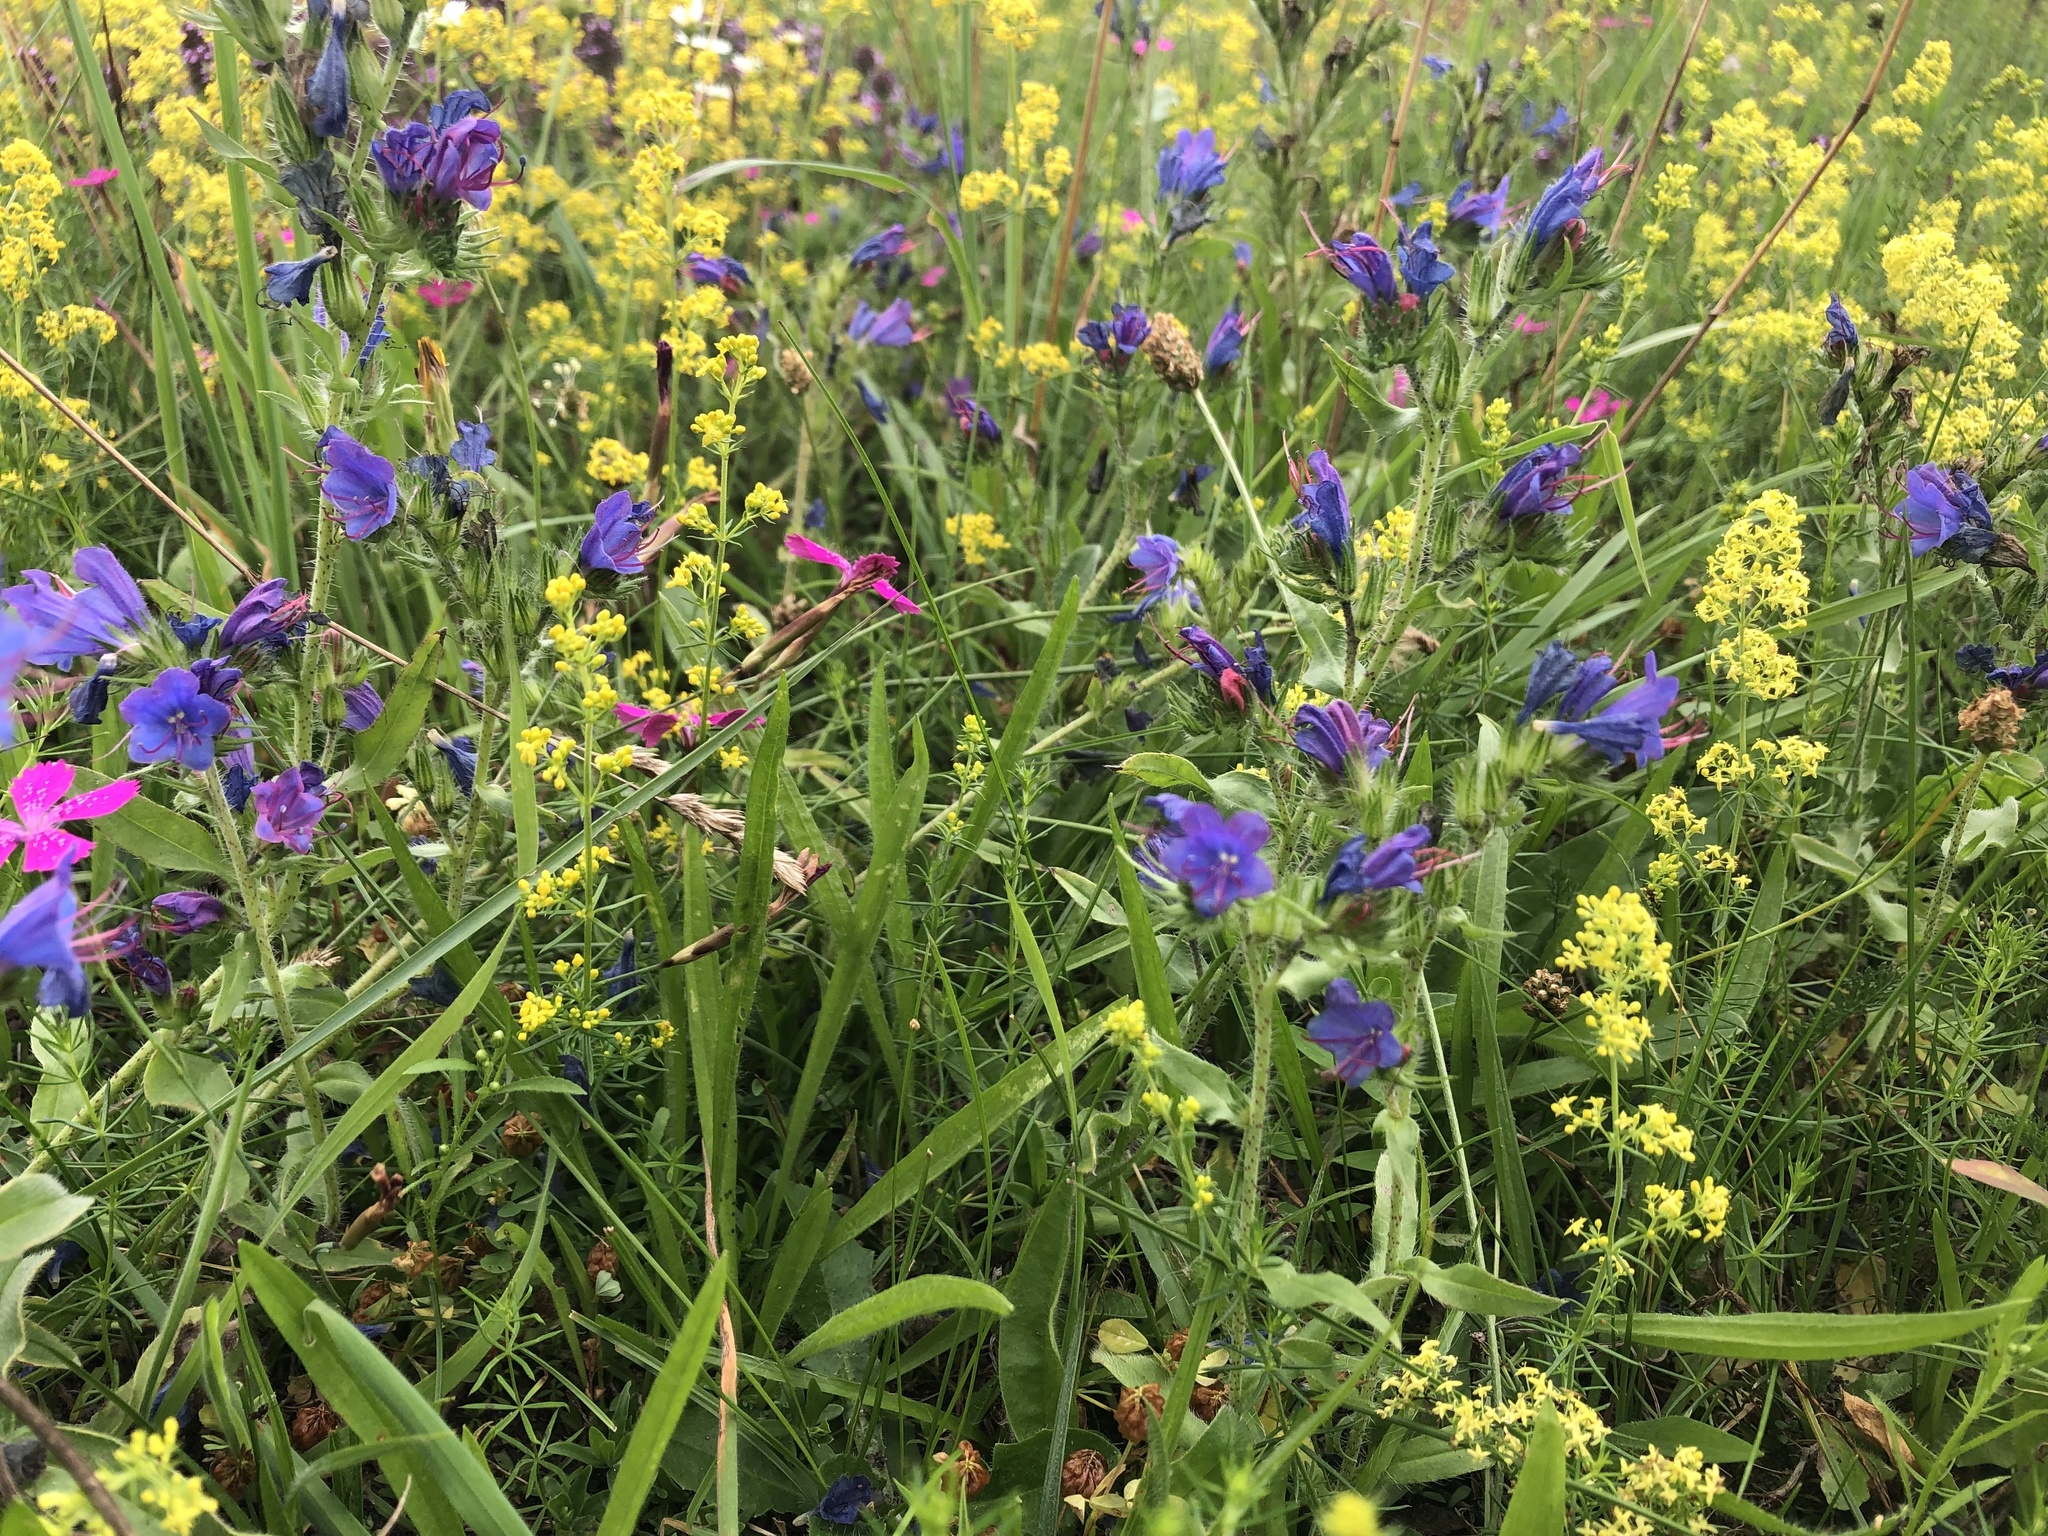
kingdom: Plantae
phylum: Tracheophyta
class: Magnoliopsida
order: Boraginales
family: Boraginaceae
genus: Echium
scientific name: Echium vulgare
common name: Common viper's bugloss
